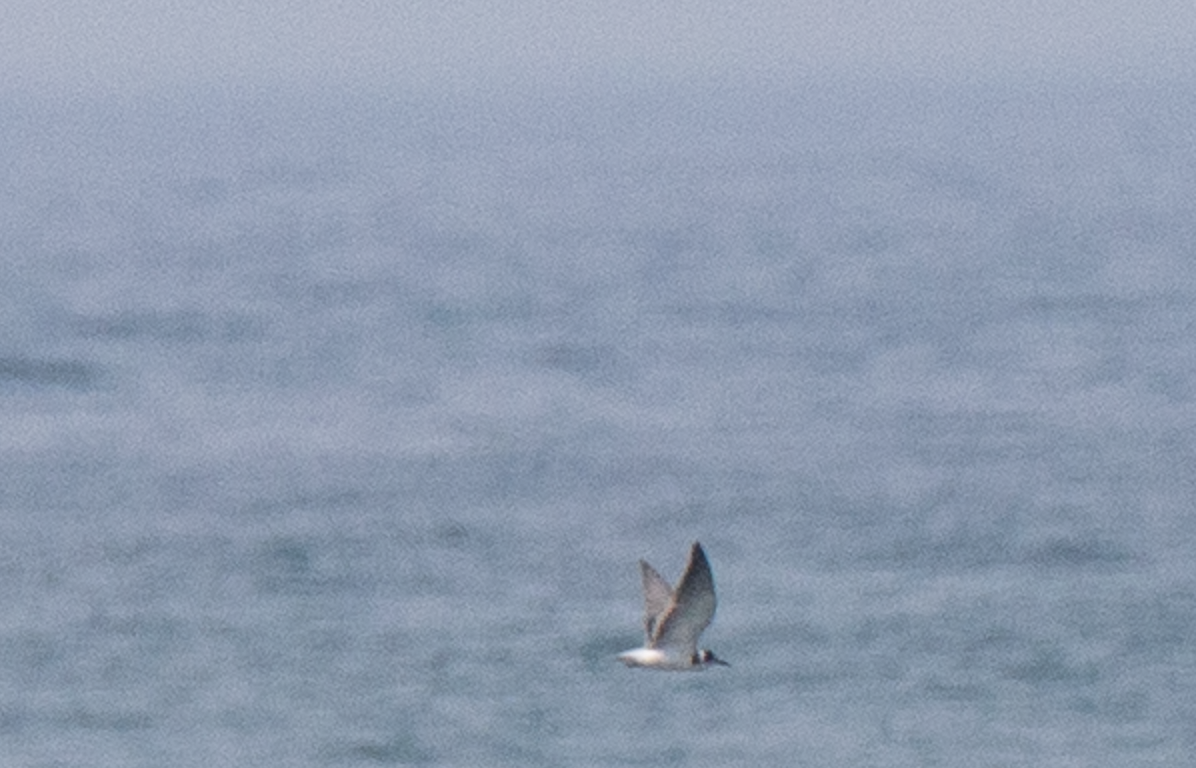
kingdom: Animalia
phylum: Chordata
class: Aves
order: Charadriiformes
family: Laridae
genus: Chlidonias
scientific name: Chlidonias niger
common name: Black tern
